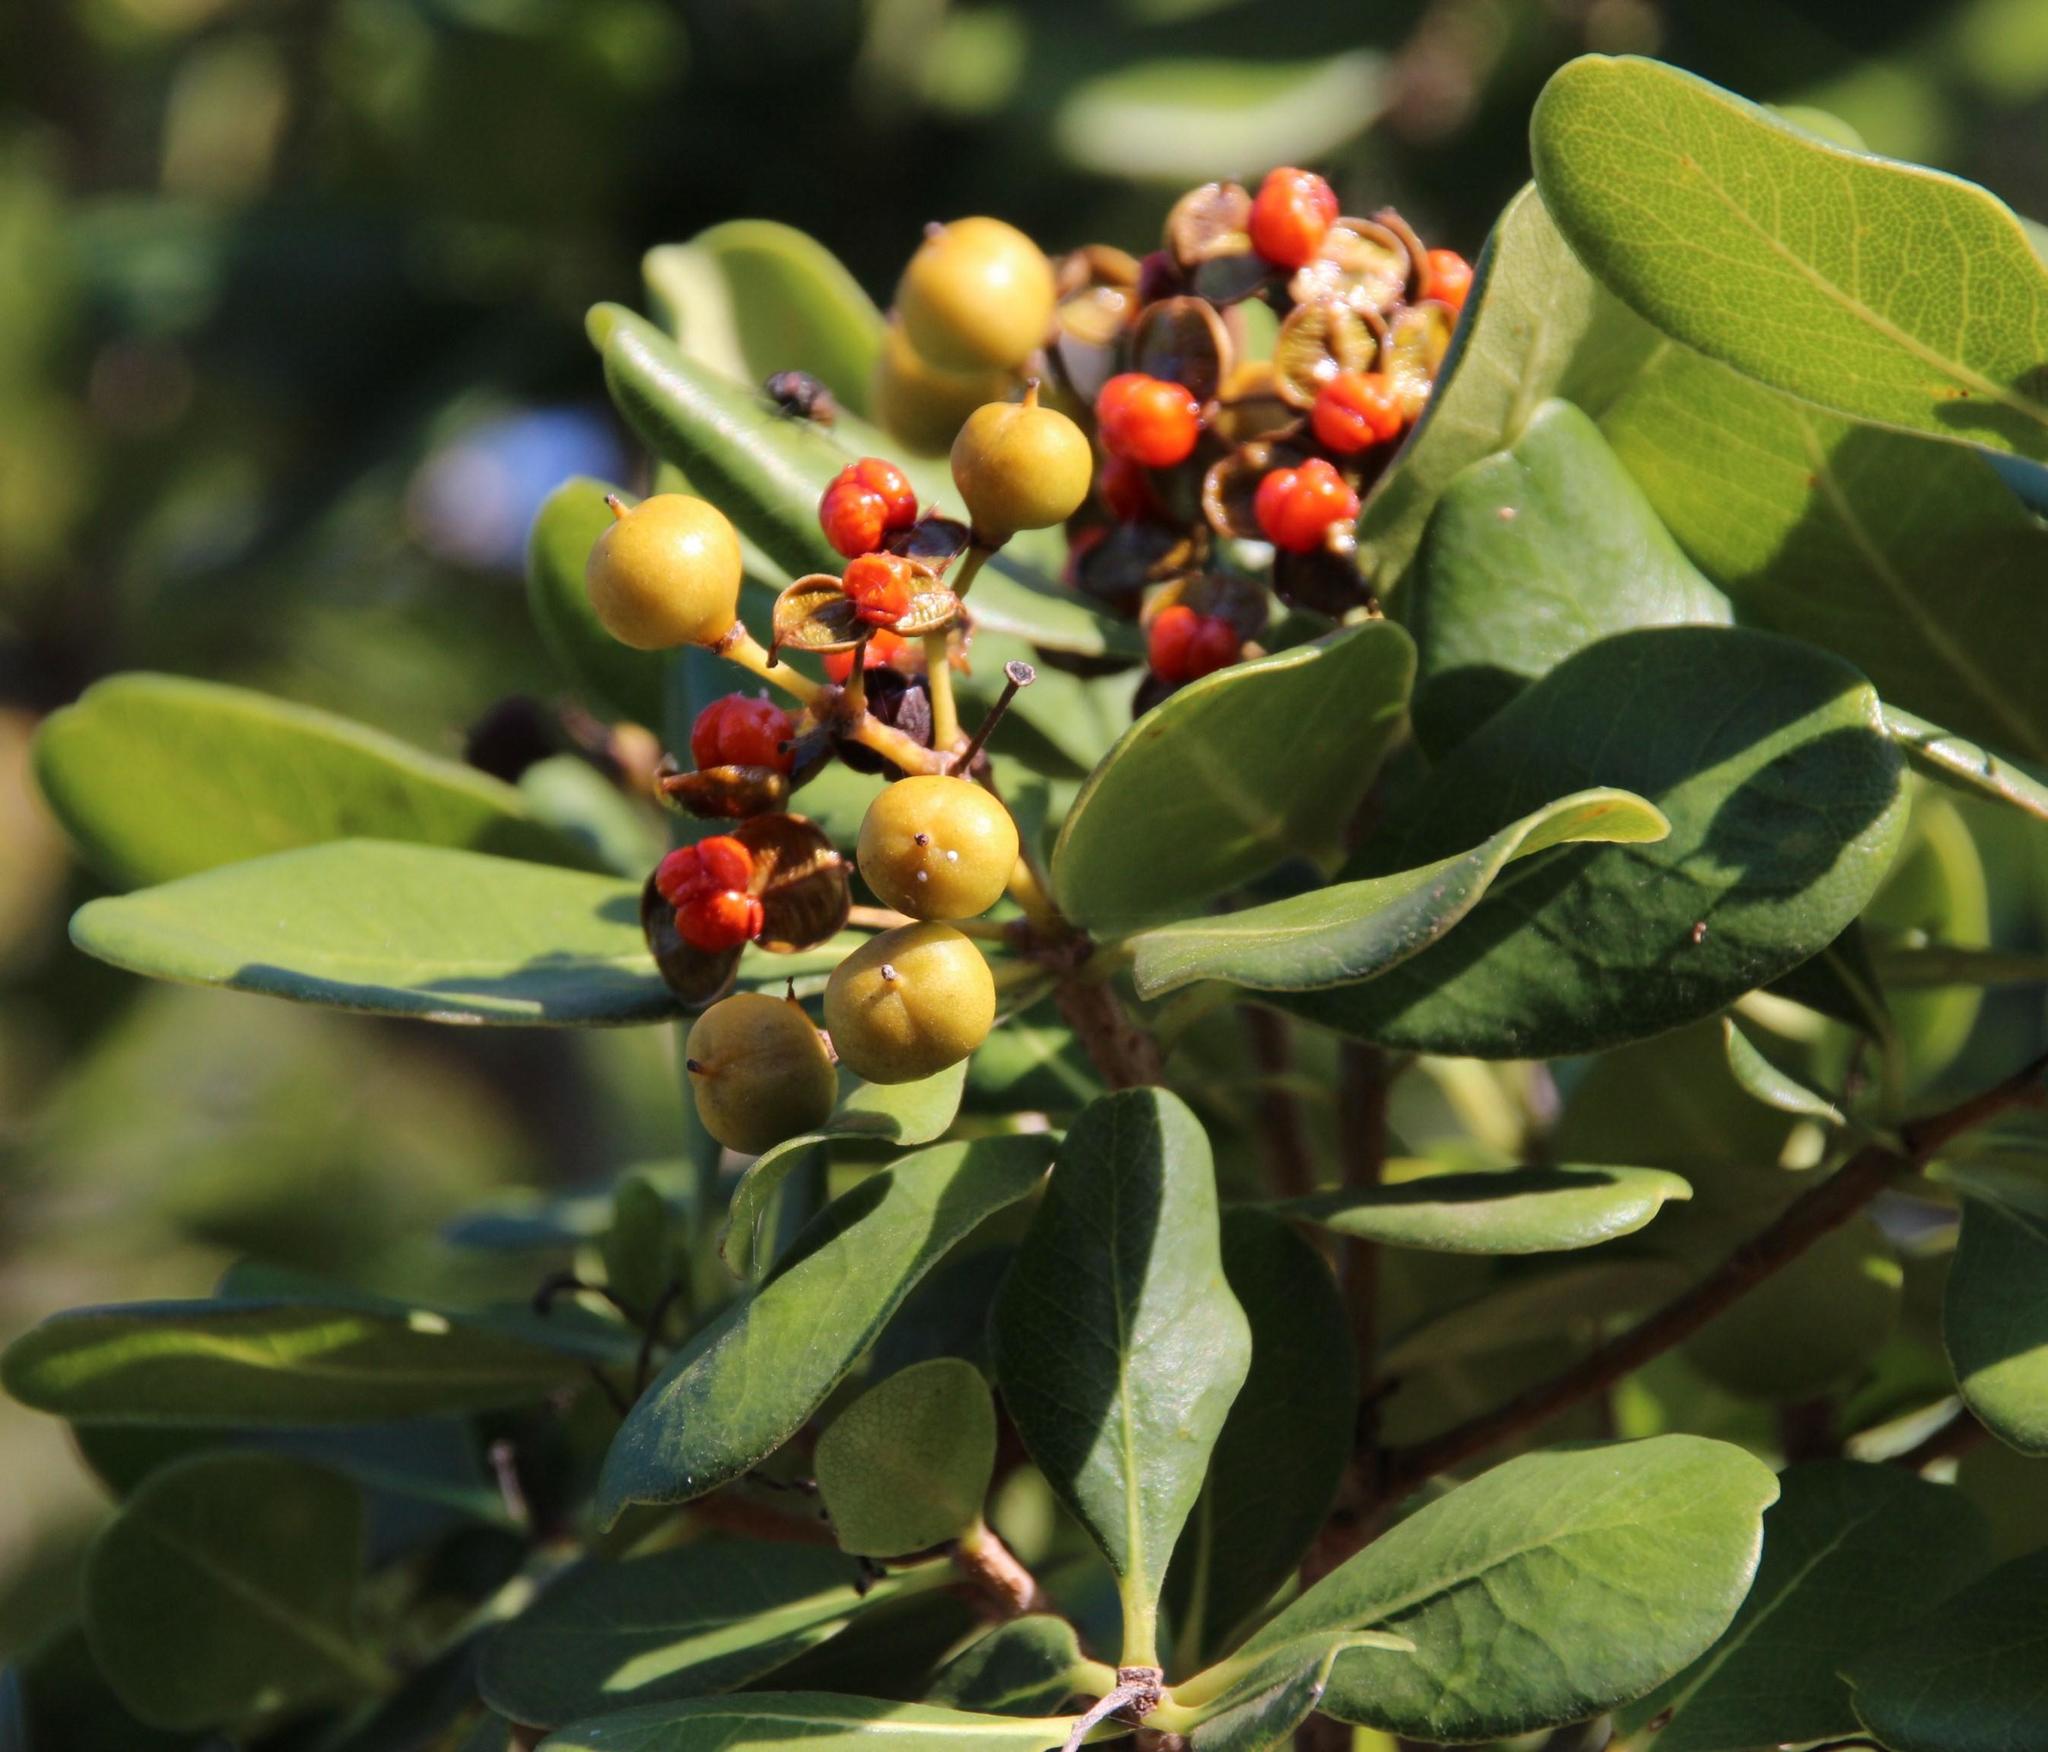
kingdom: Plantae
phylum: Tracheophyta
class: Magnoliopsida
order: Apiales
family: Pittosporaceae
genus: Pittosporum
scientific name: Pittosporum viridiflorum
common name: Cape cheesewood
